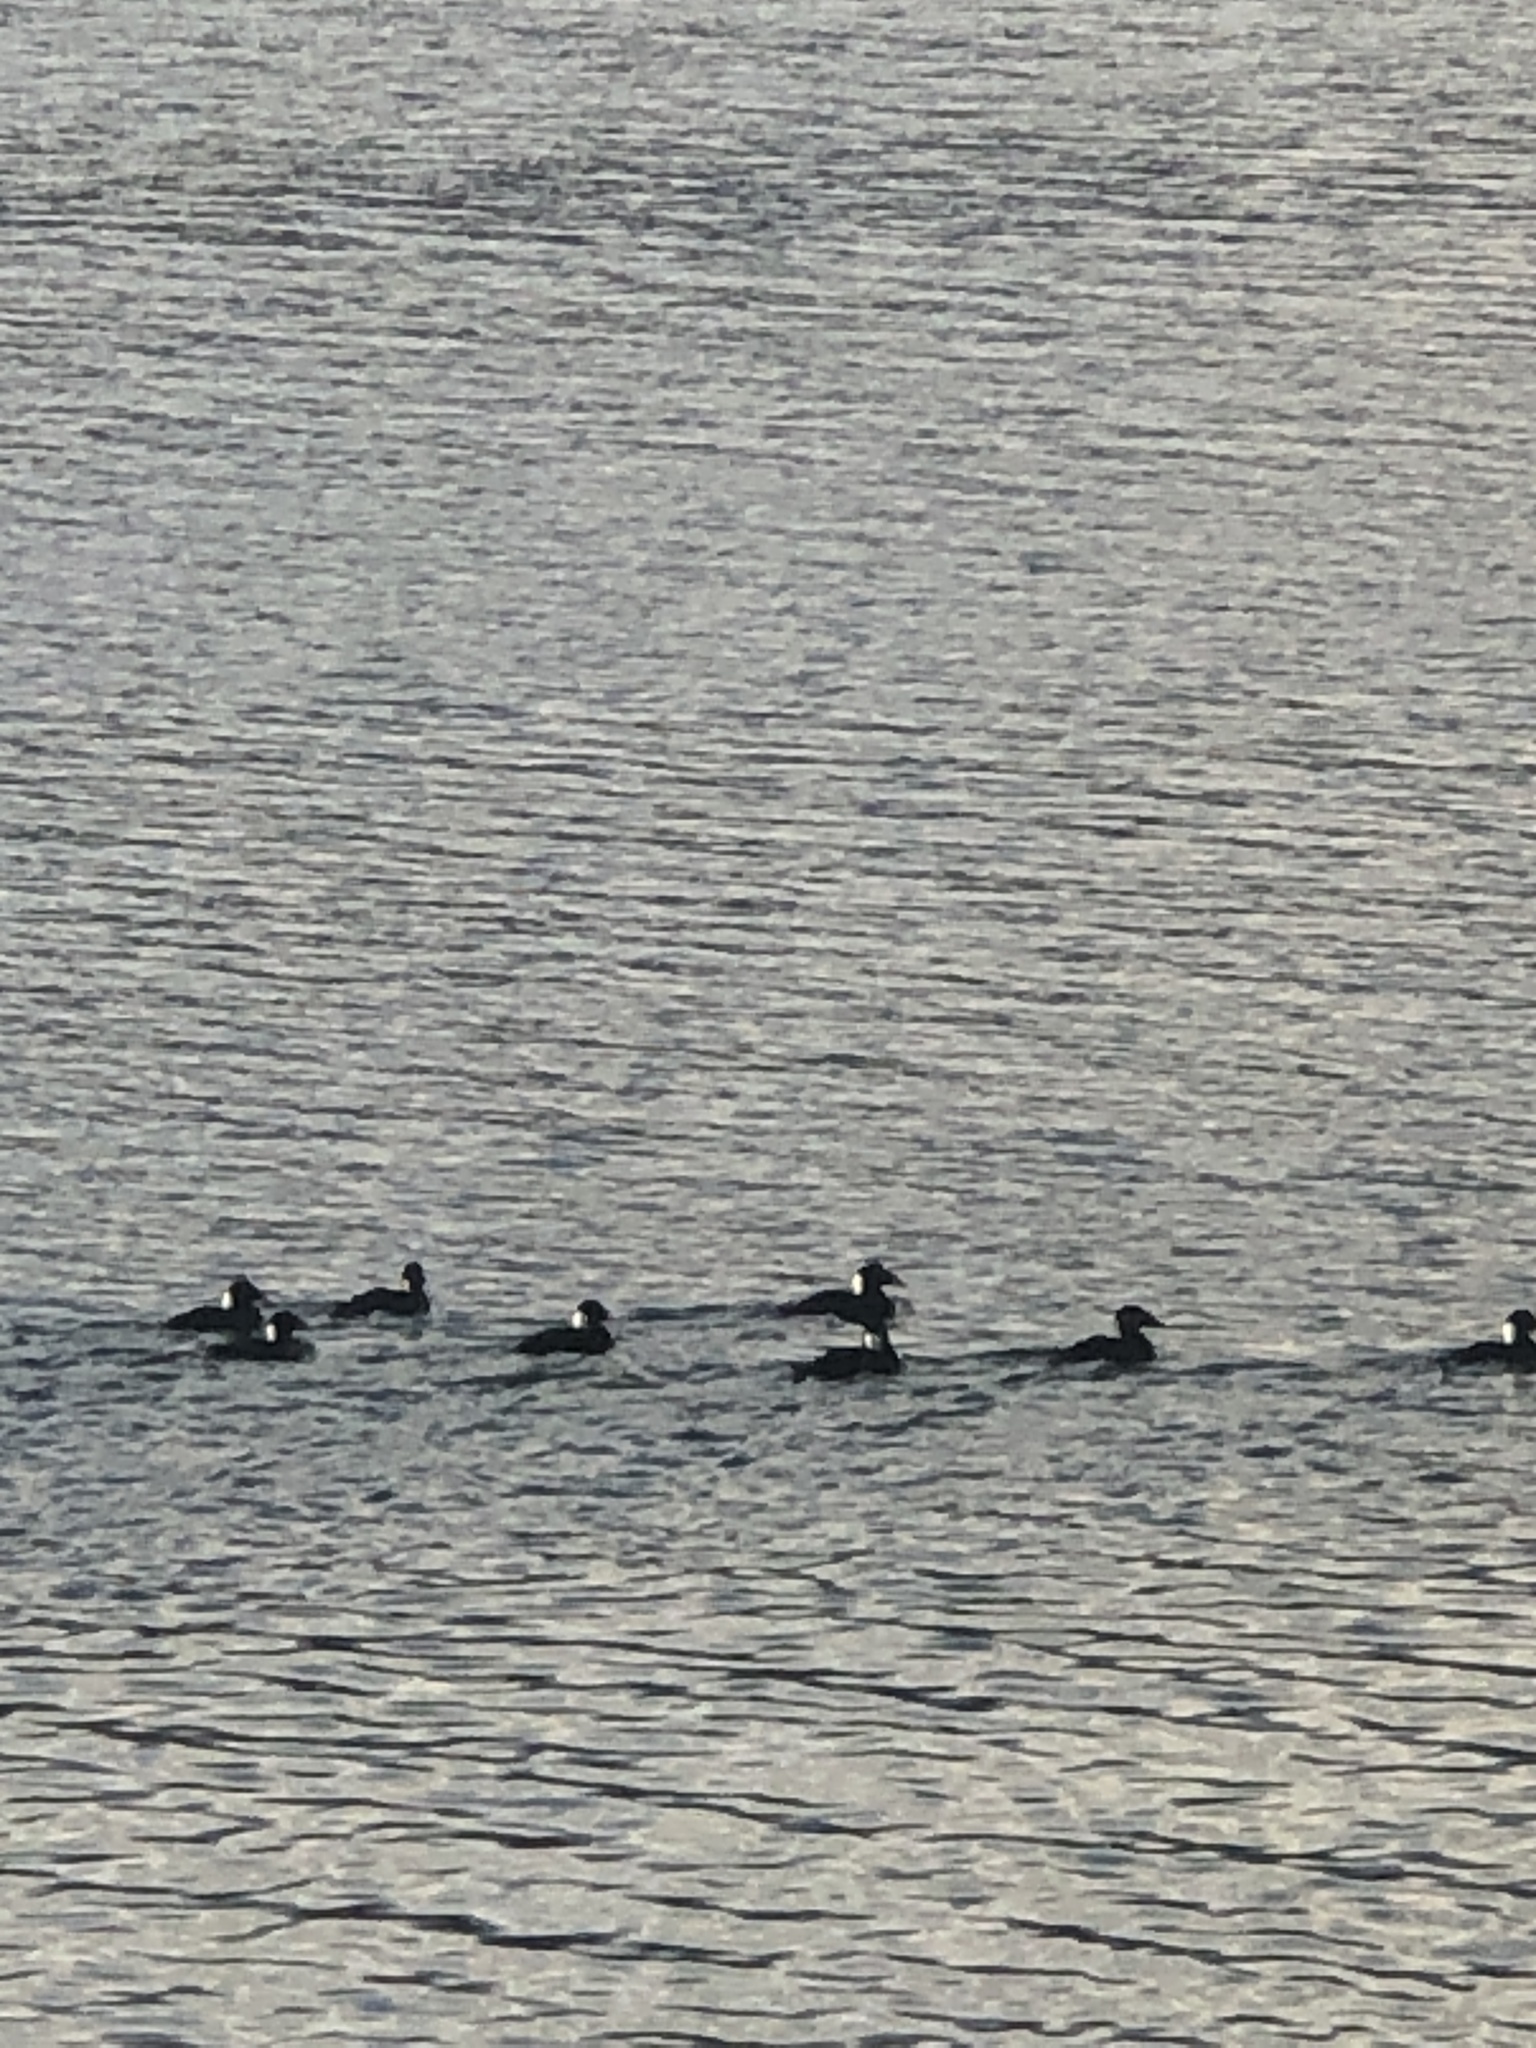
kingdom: Animalia
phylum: Chordata
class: Aves
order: Anseriformes
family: Anatidae
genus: Melanitta
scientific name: Melanitta perspicillata
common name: Surf scoter
